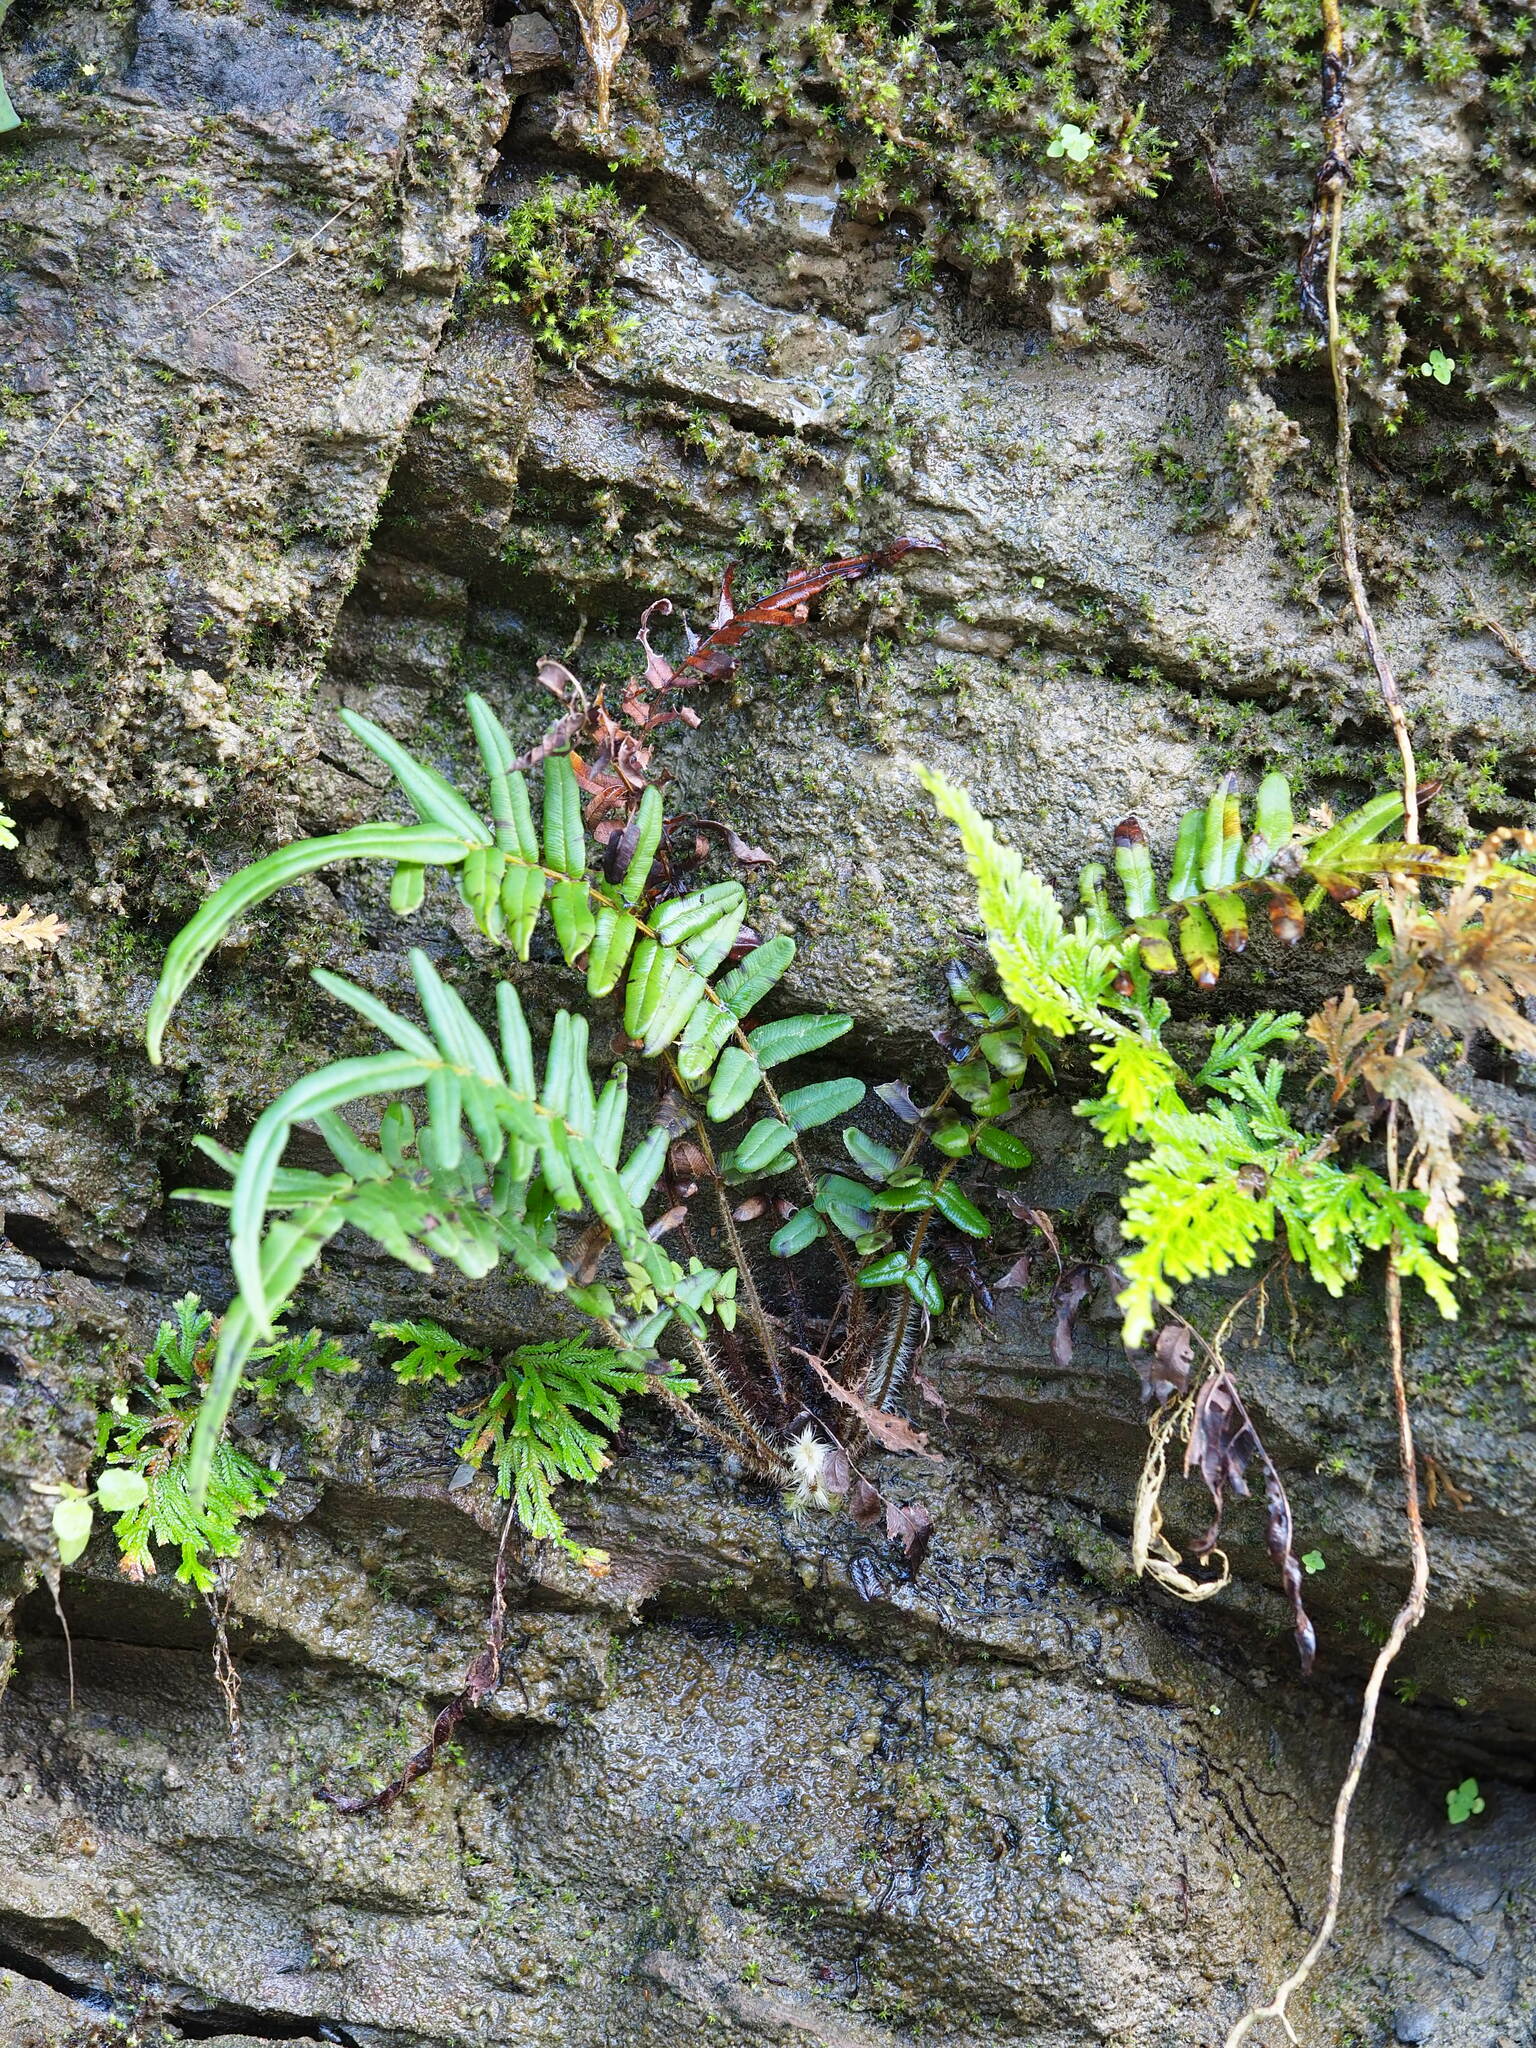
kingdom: Plantae
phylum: Tracheophyta
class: Polypodiopsida
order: Polypodiales
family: Pteridaceae
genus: Pteris
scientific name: Pteris vittata
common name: Ladder brake
